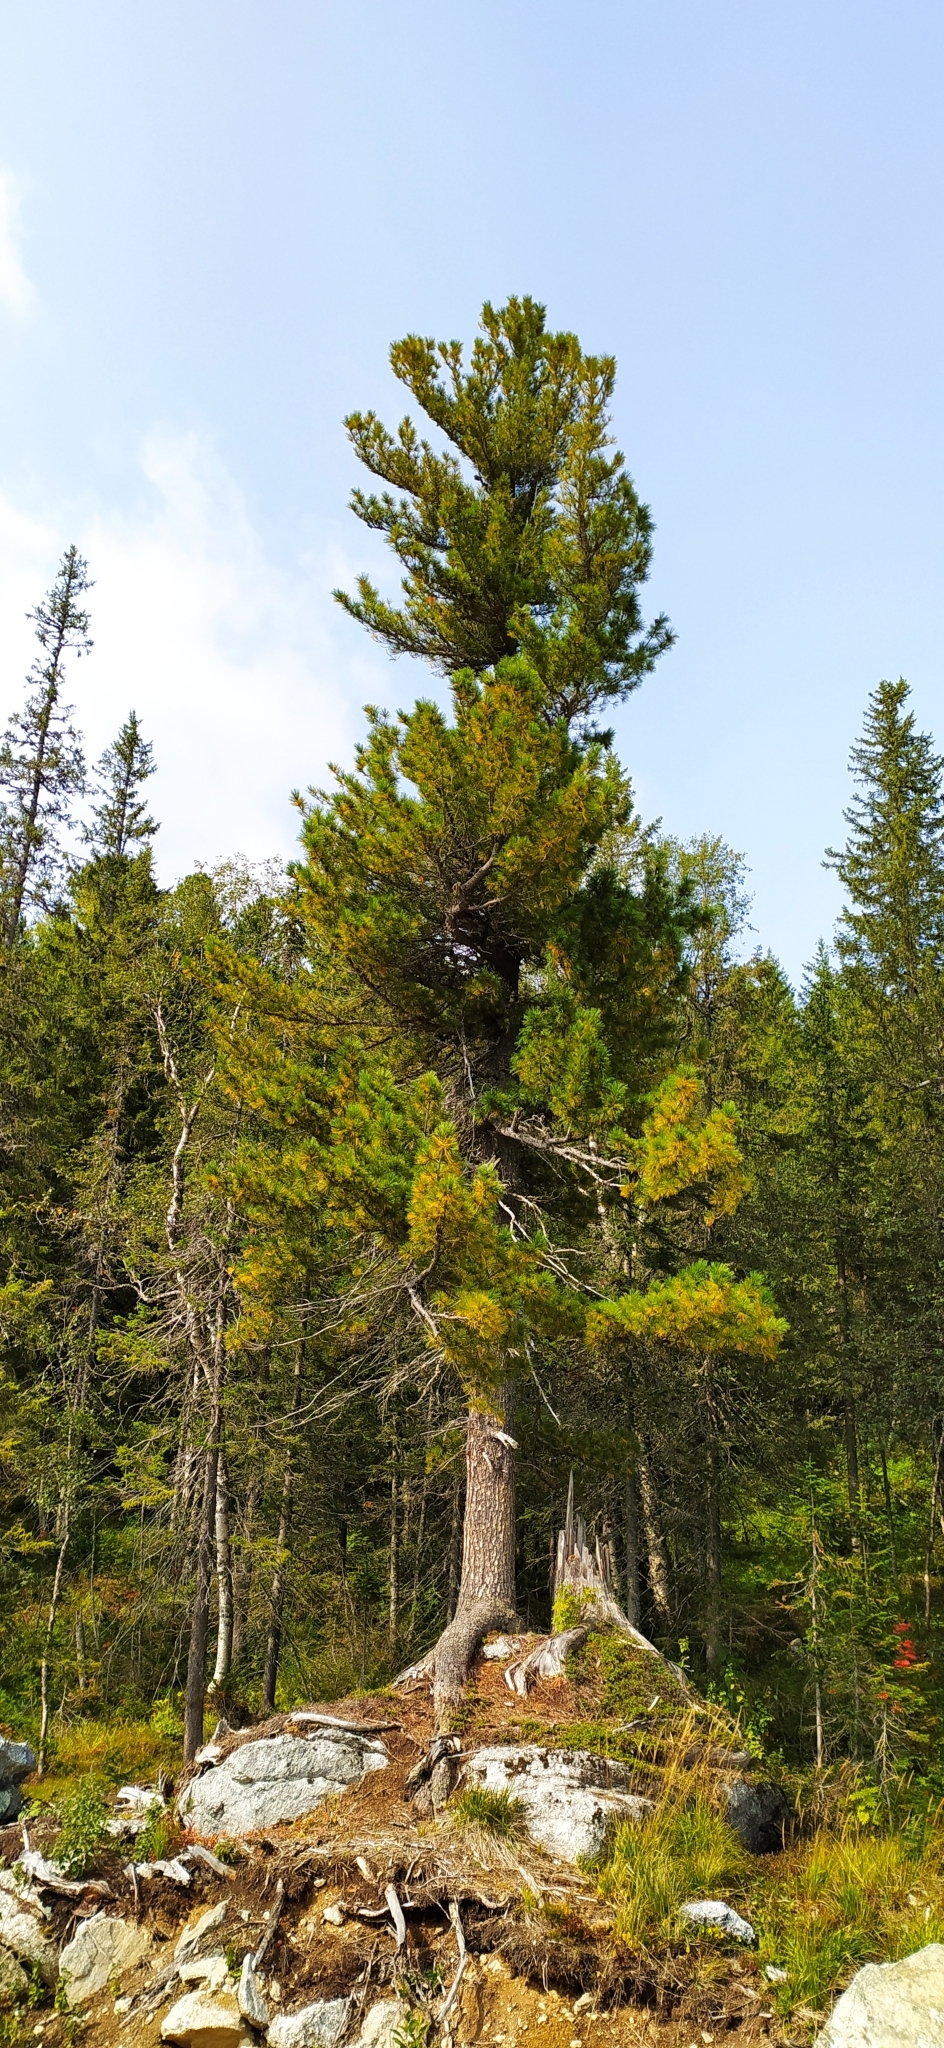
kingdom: Plantae
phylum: Tracheophyta
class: Pinopsida
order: Pinales
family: Pinaceae
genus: Pinus
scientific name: Pinus sibirica
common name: Siberian pine
